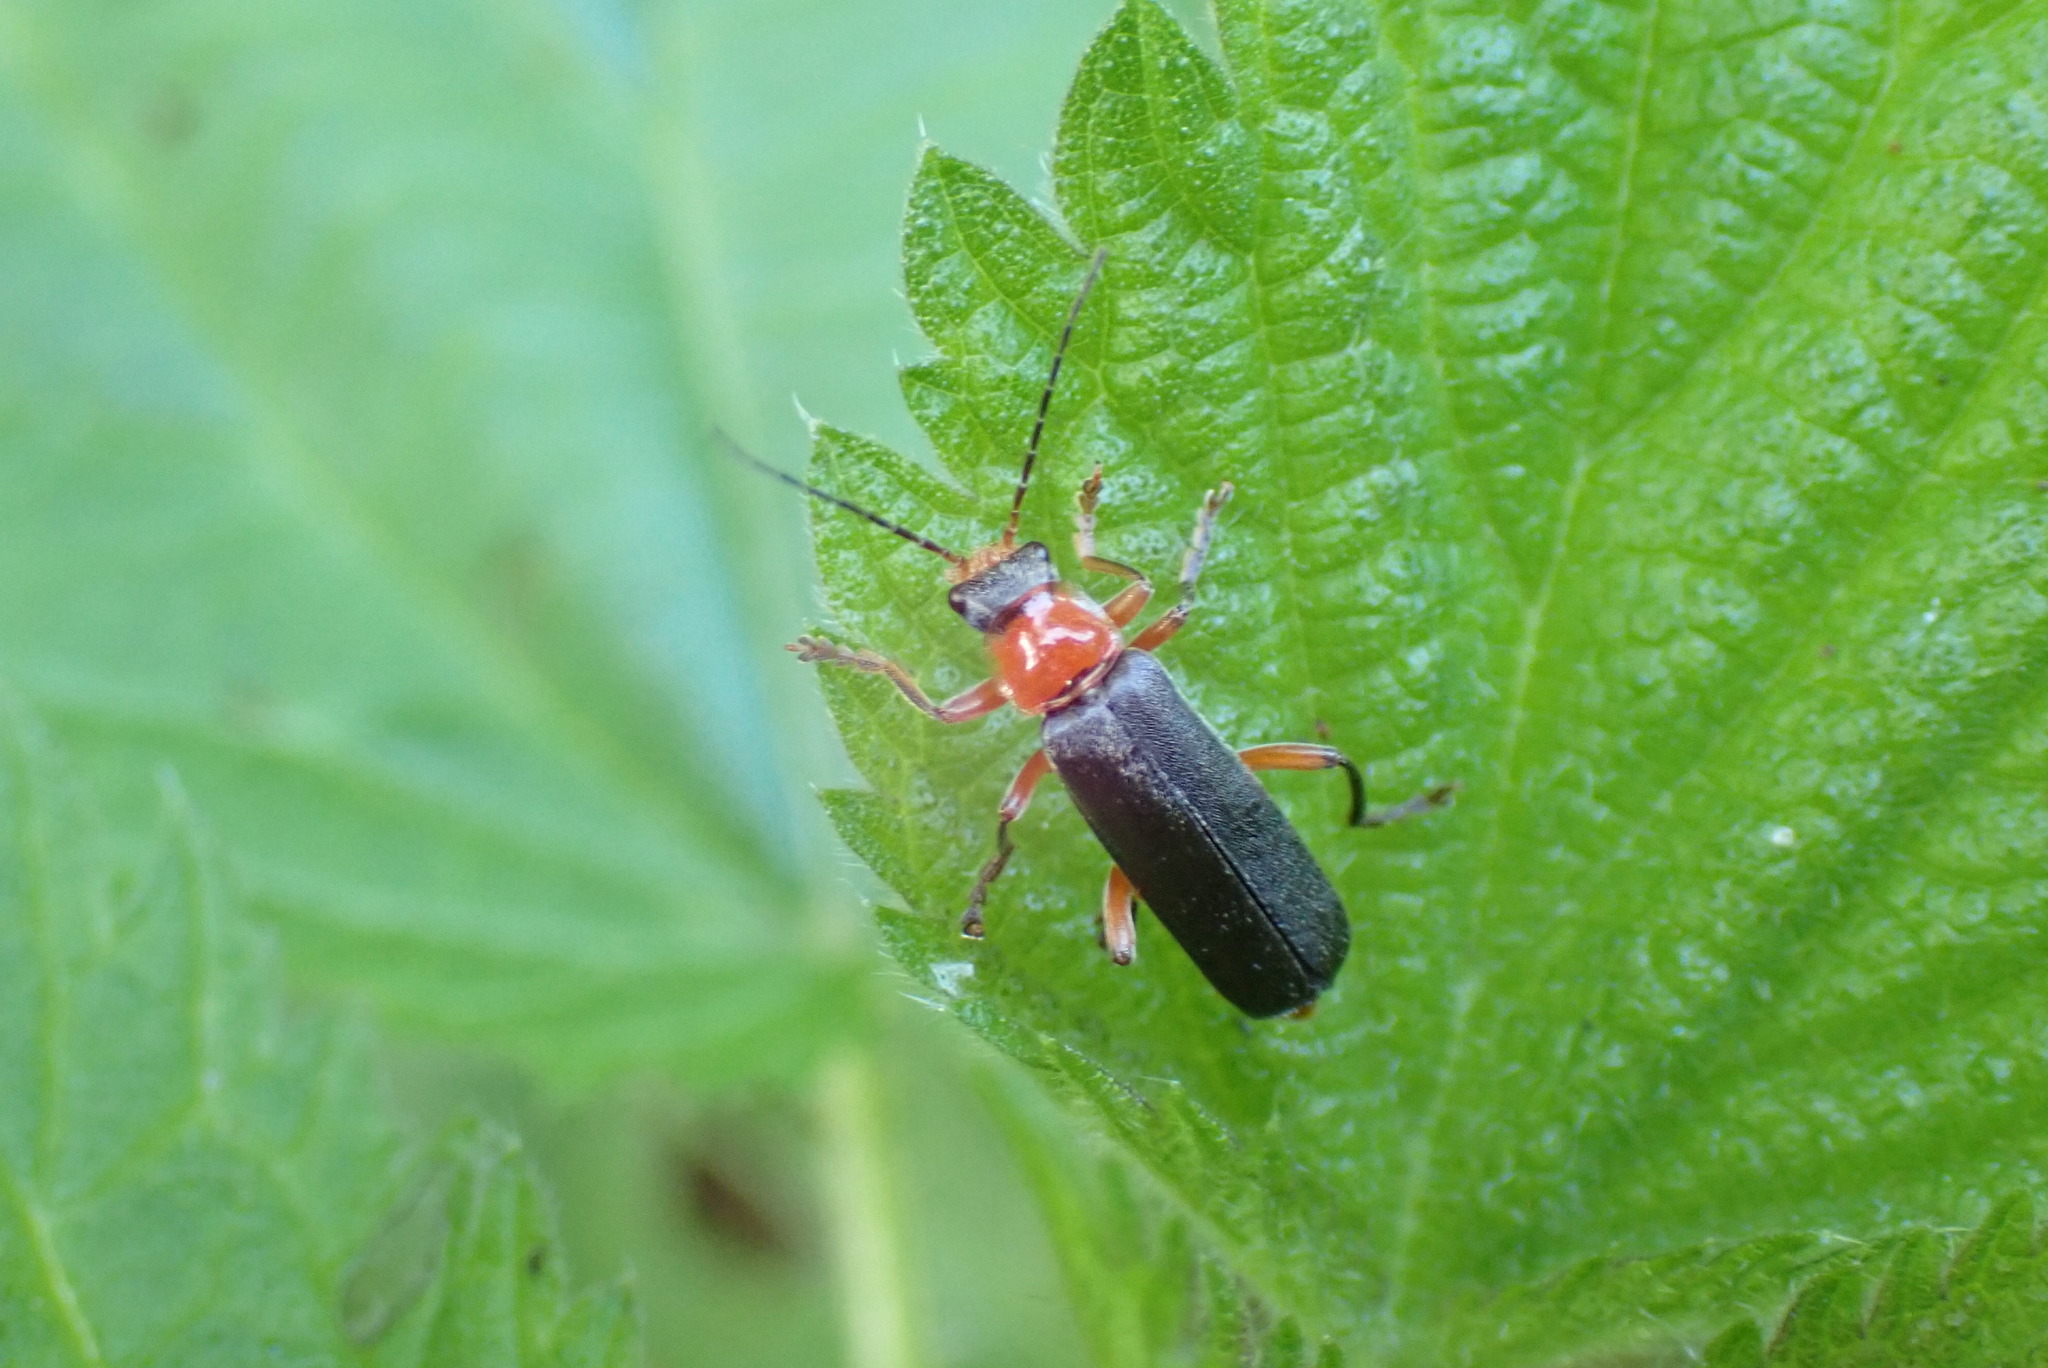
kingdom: Animalia
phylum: Arthropoda
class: Insecta
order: Coleoptera
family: Cantharidae
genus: Cantharis
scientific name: Cantharis pellucida
